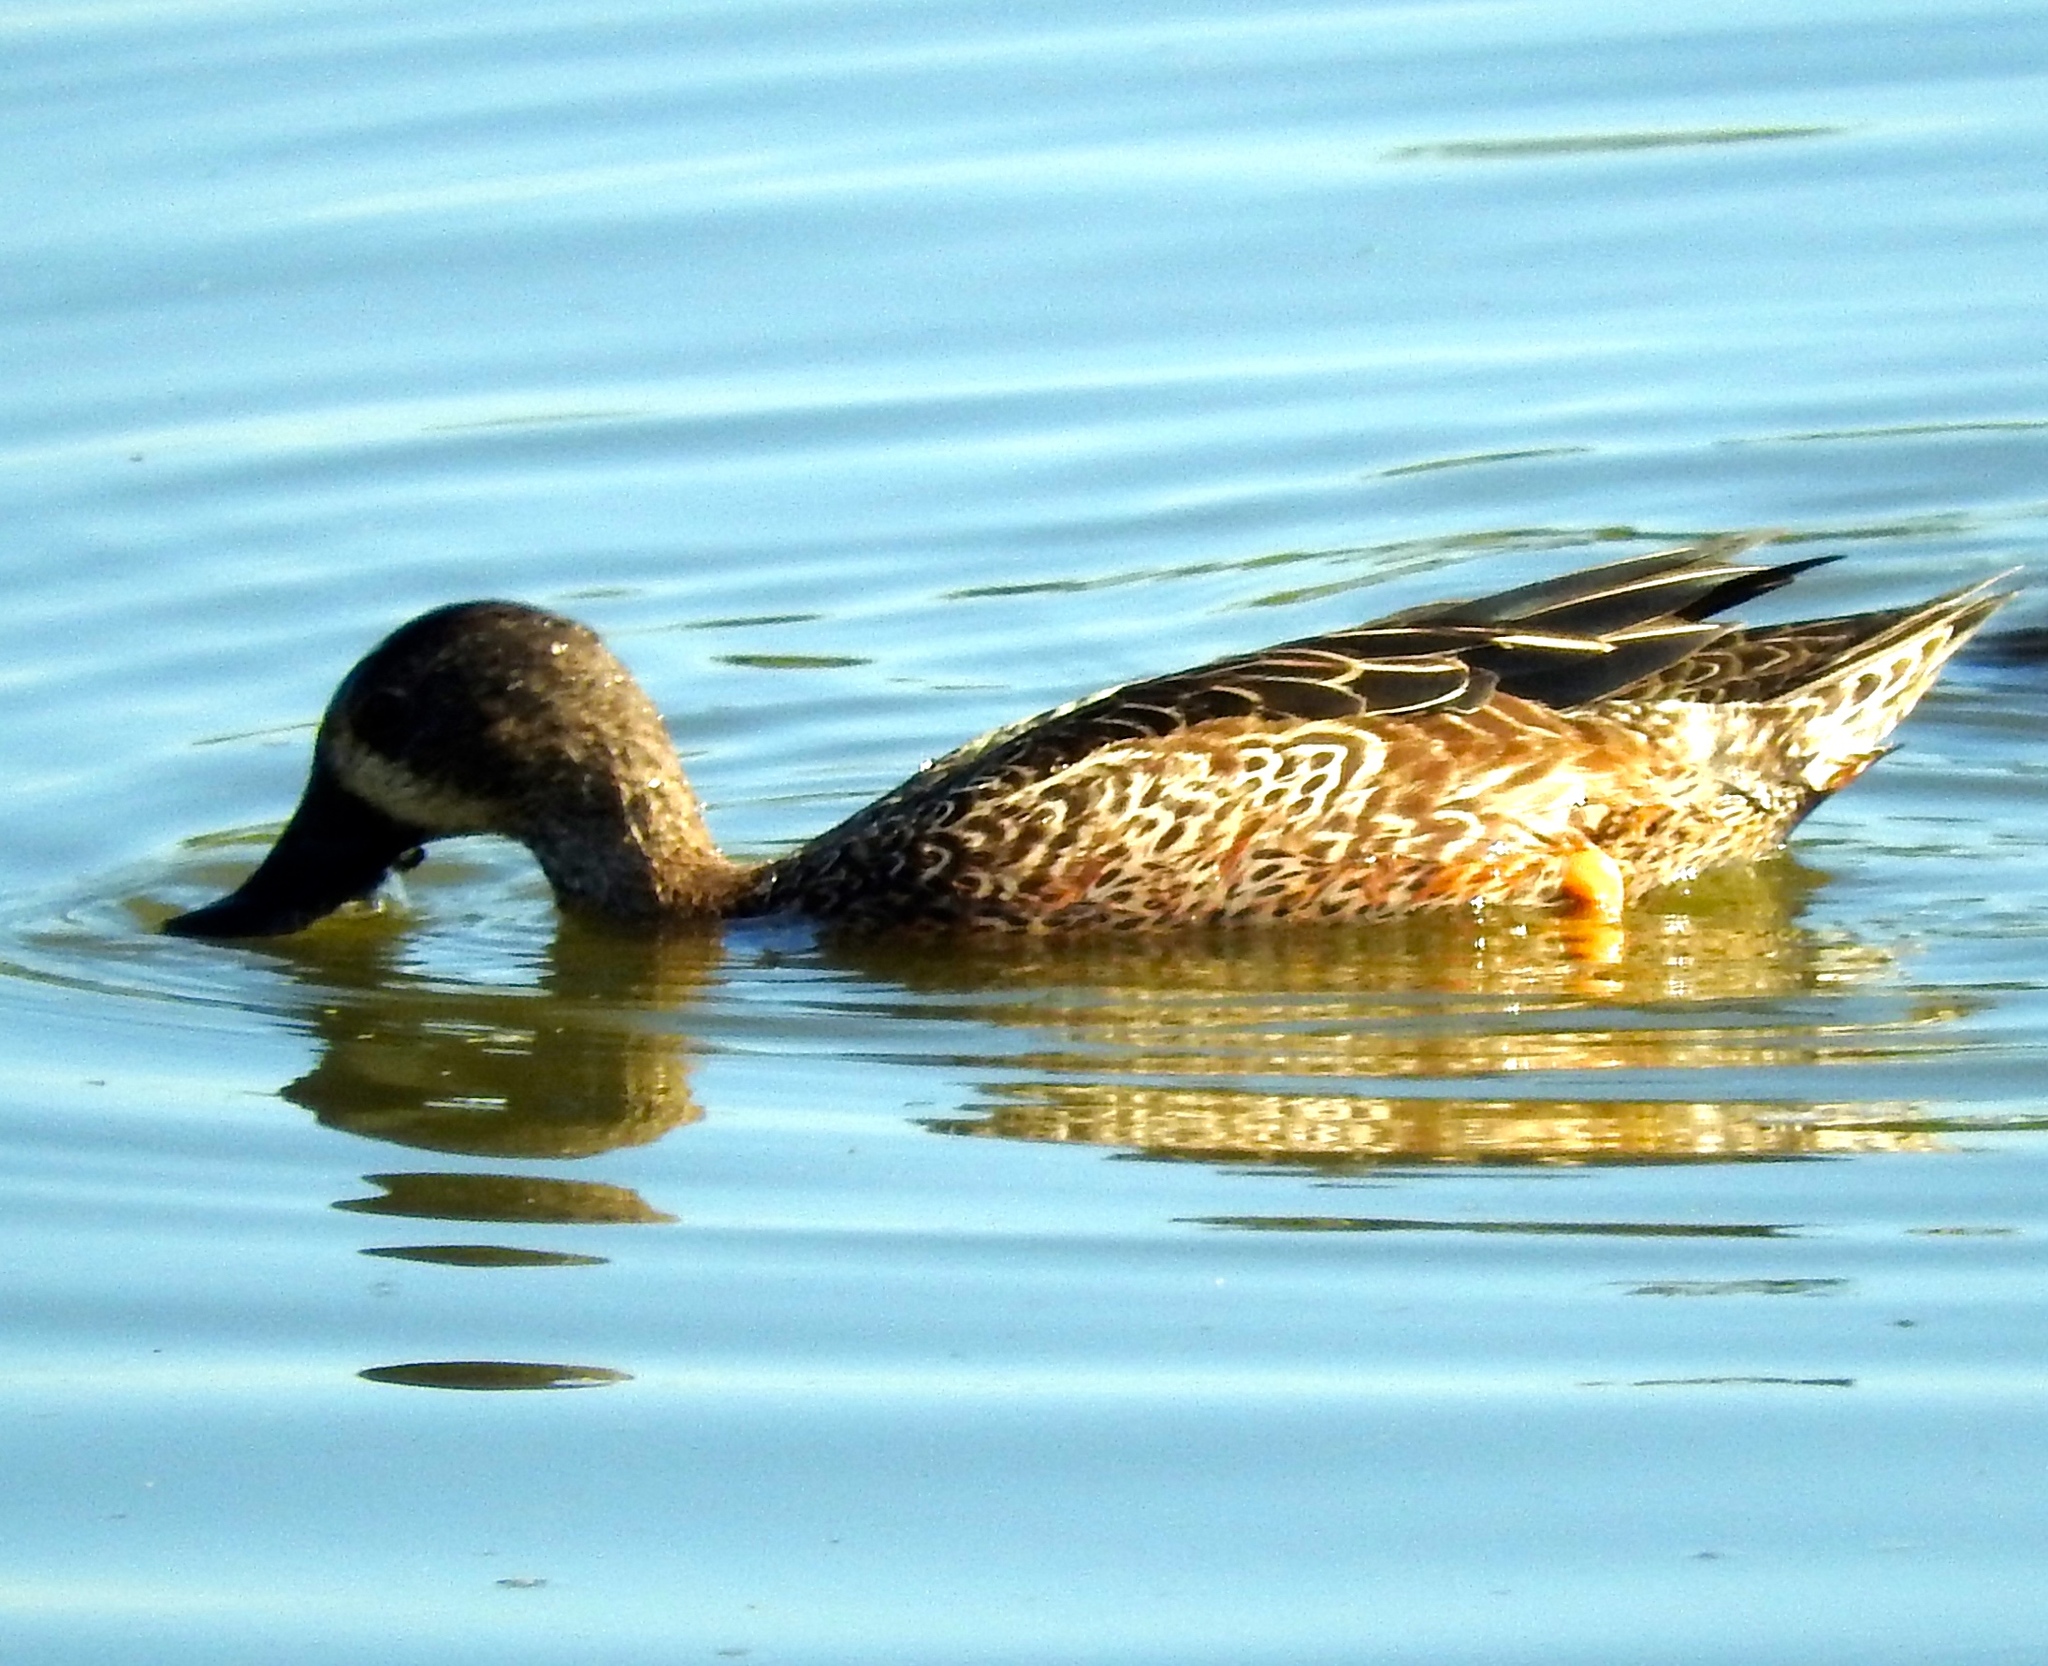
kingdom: Animalia
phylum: Chordata
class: Aves
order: Anseriformes
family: Anatidae
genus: Spatula
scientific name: Spatula discors
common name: Blue-winged teal
